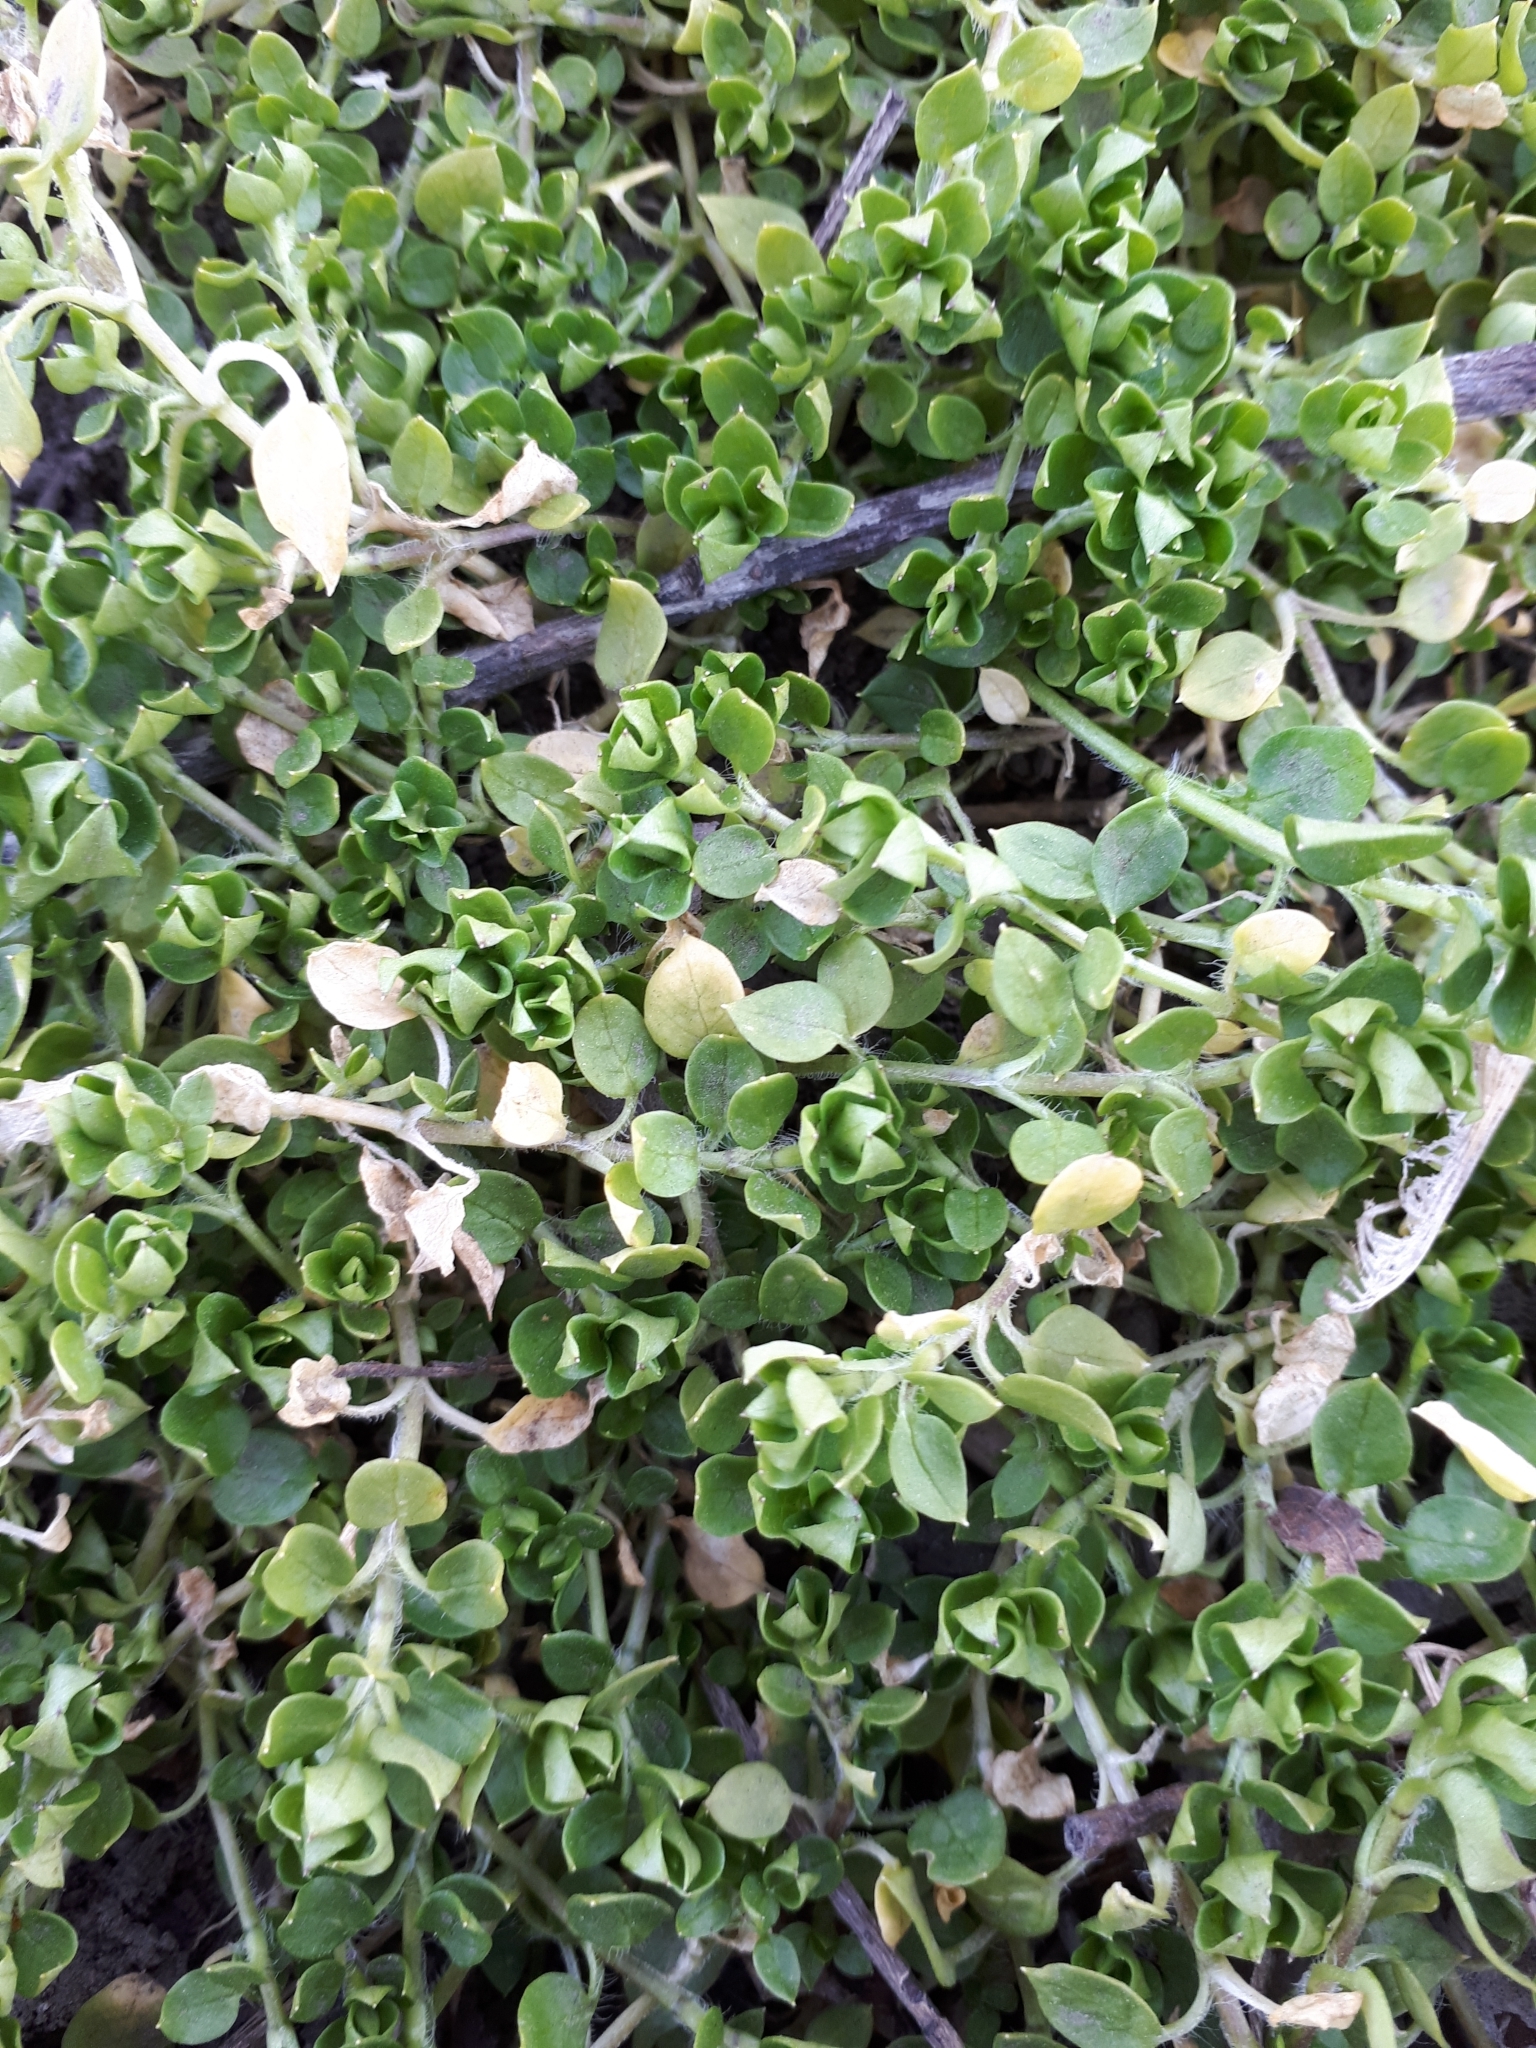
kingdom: Plantae
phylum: Tracheophyta
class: Magnoliopsida
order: Caryophyllales
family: Caryophyllaceae
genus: Stellaria
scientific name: Stellaria media
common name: Common chickweed
